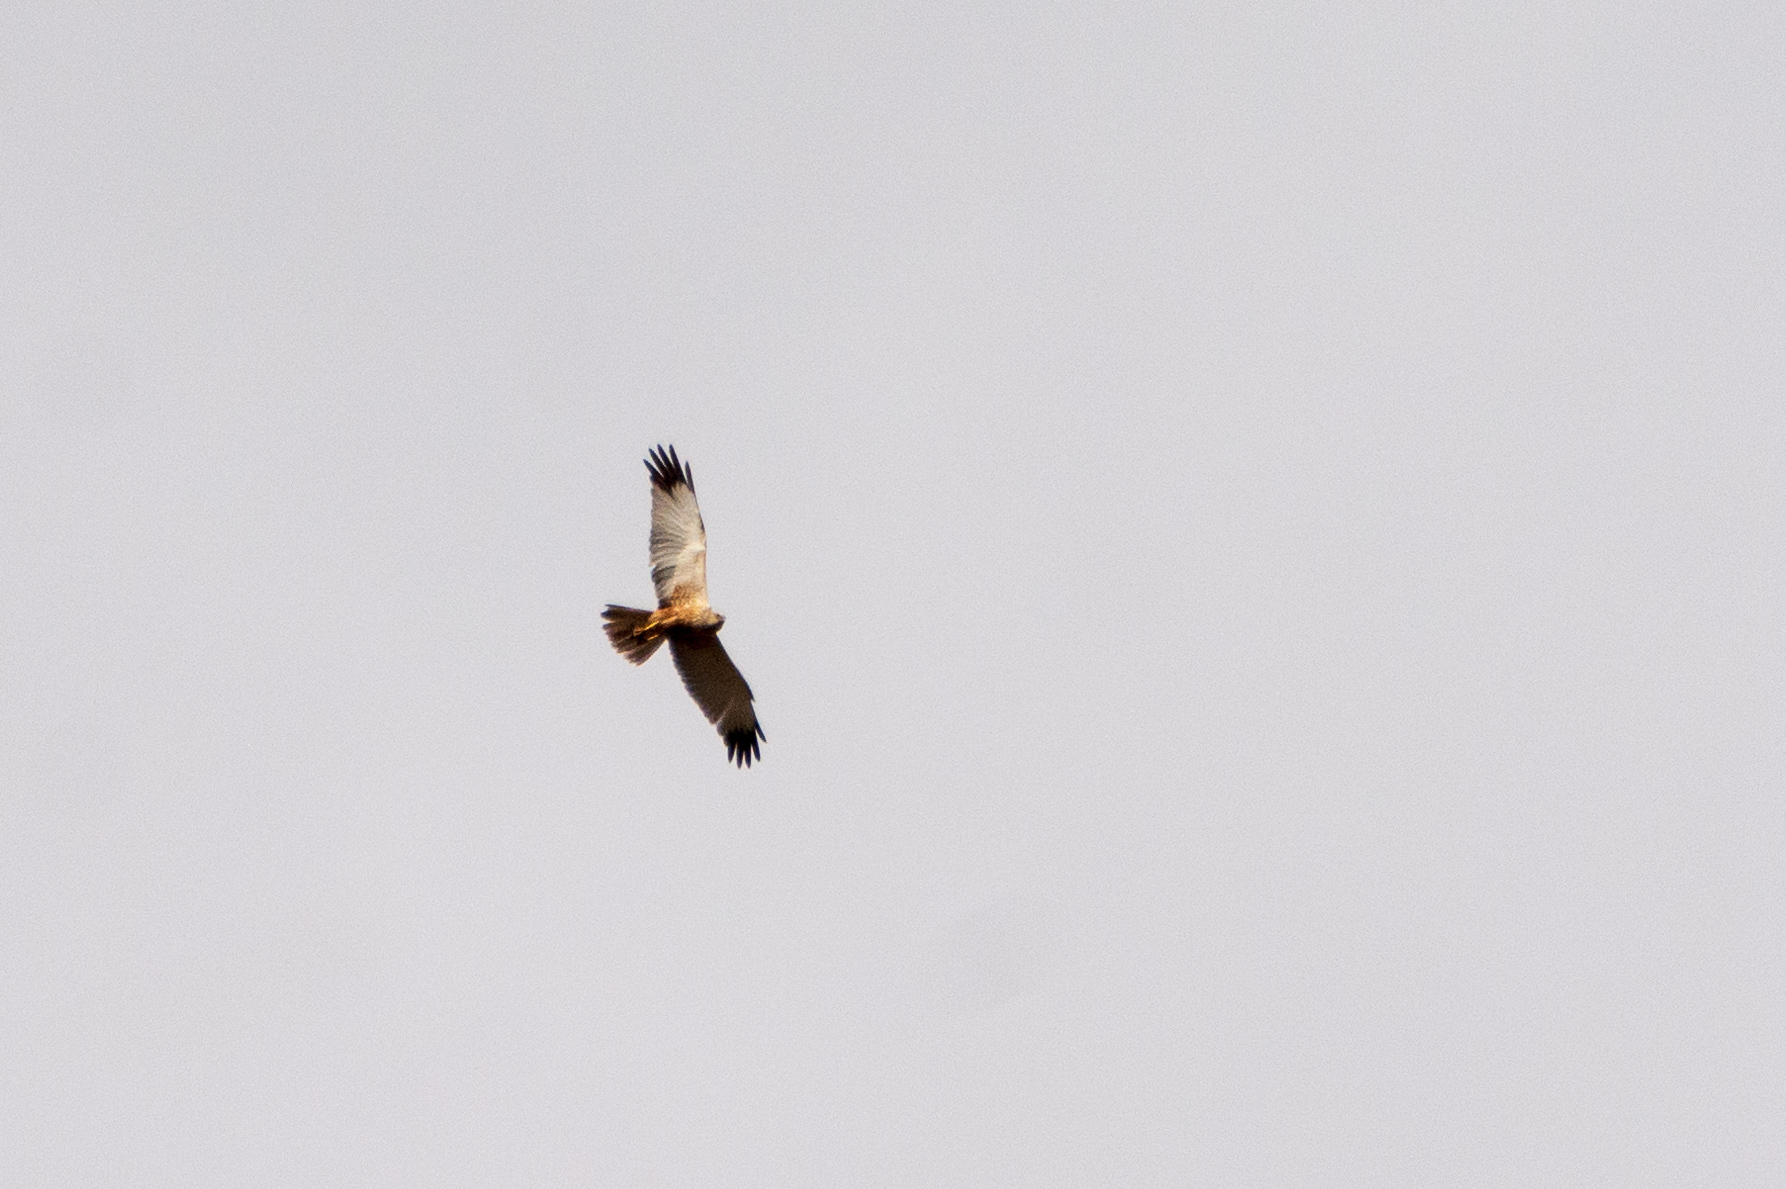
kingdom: Animalia
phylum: Chordata
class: Aves
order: Accipitriformes
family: Accipitridae
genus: Circus
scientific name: Circus aeruginosus
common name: Western marsh harrier
